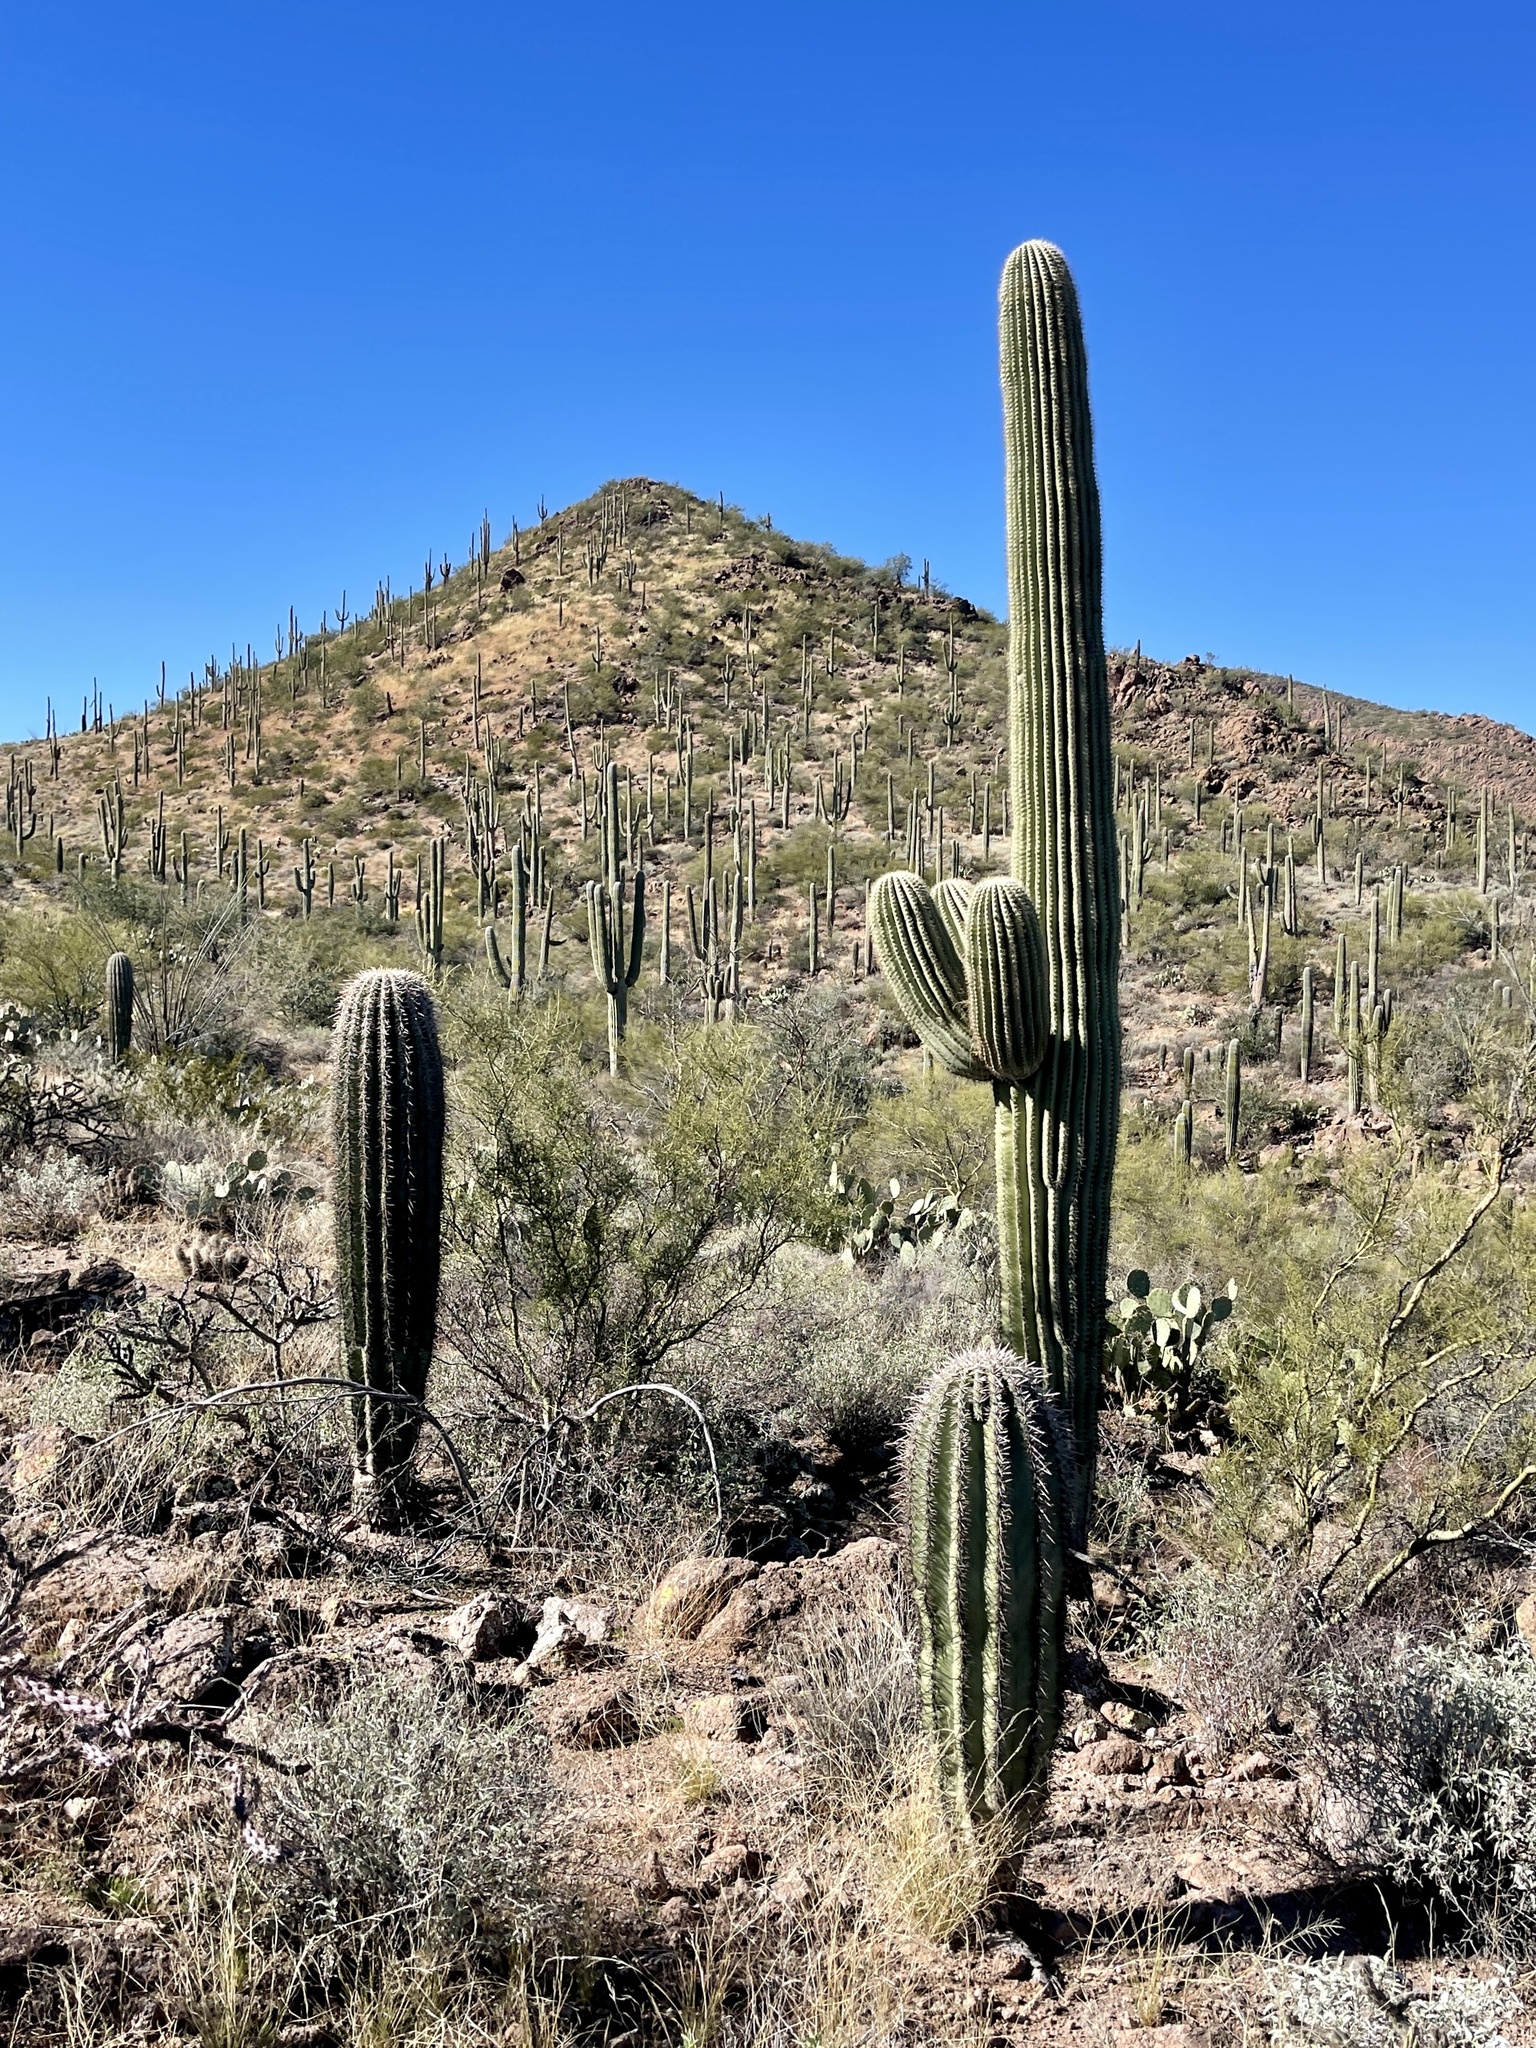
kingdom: Plantae
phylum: Tracheophyta
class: Magnoliopsida
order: Caryophyllales
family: Cactaceae
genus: Carnegiea
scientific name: Carnegiea gigantea
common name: Saguaro
